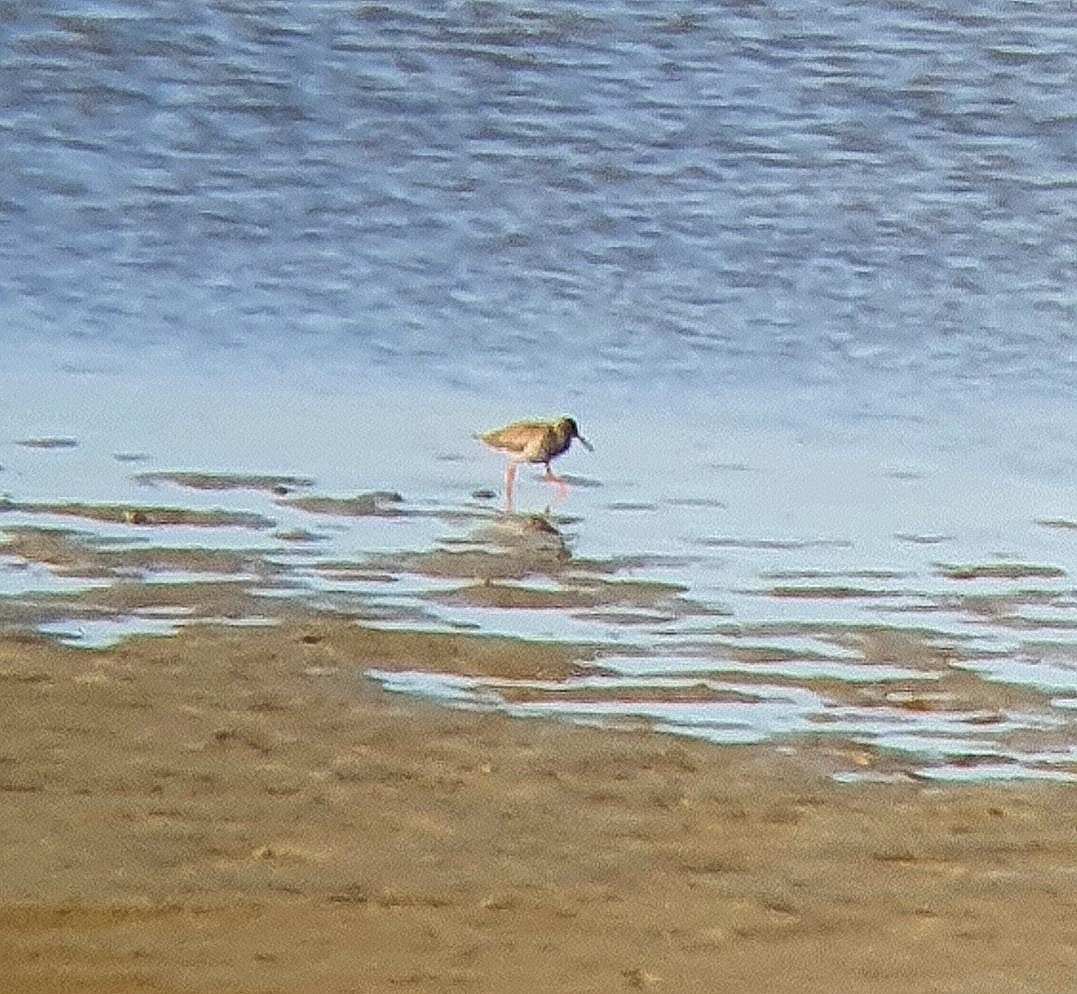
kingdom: Animalia
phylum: Chordata
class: Aves
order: Charadriiformes
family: Scolopacidae
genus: Tringa
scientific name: Tringa totanus
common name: Common redshank
